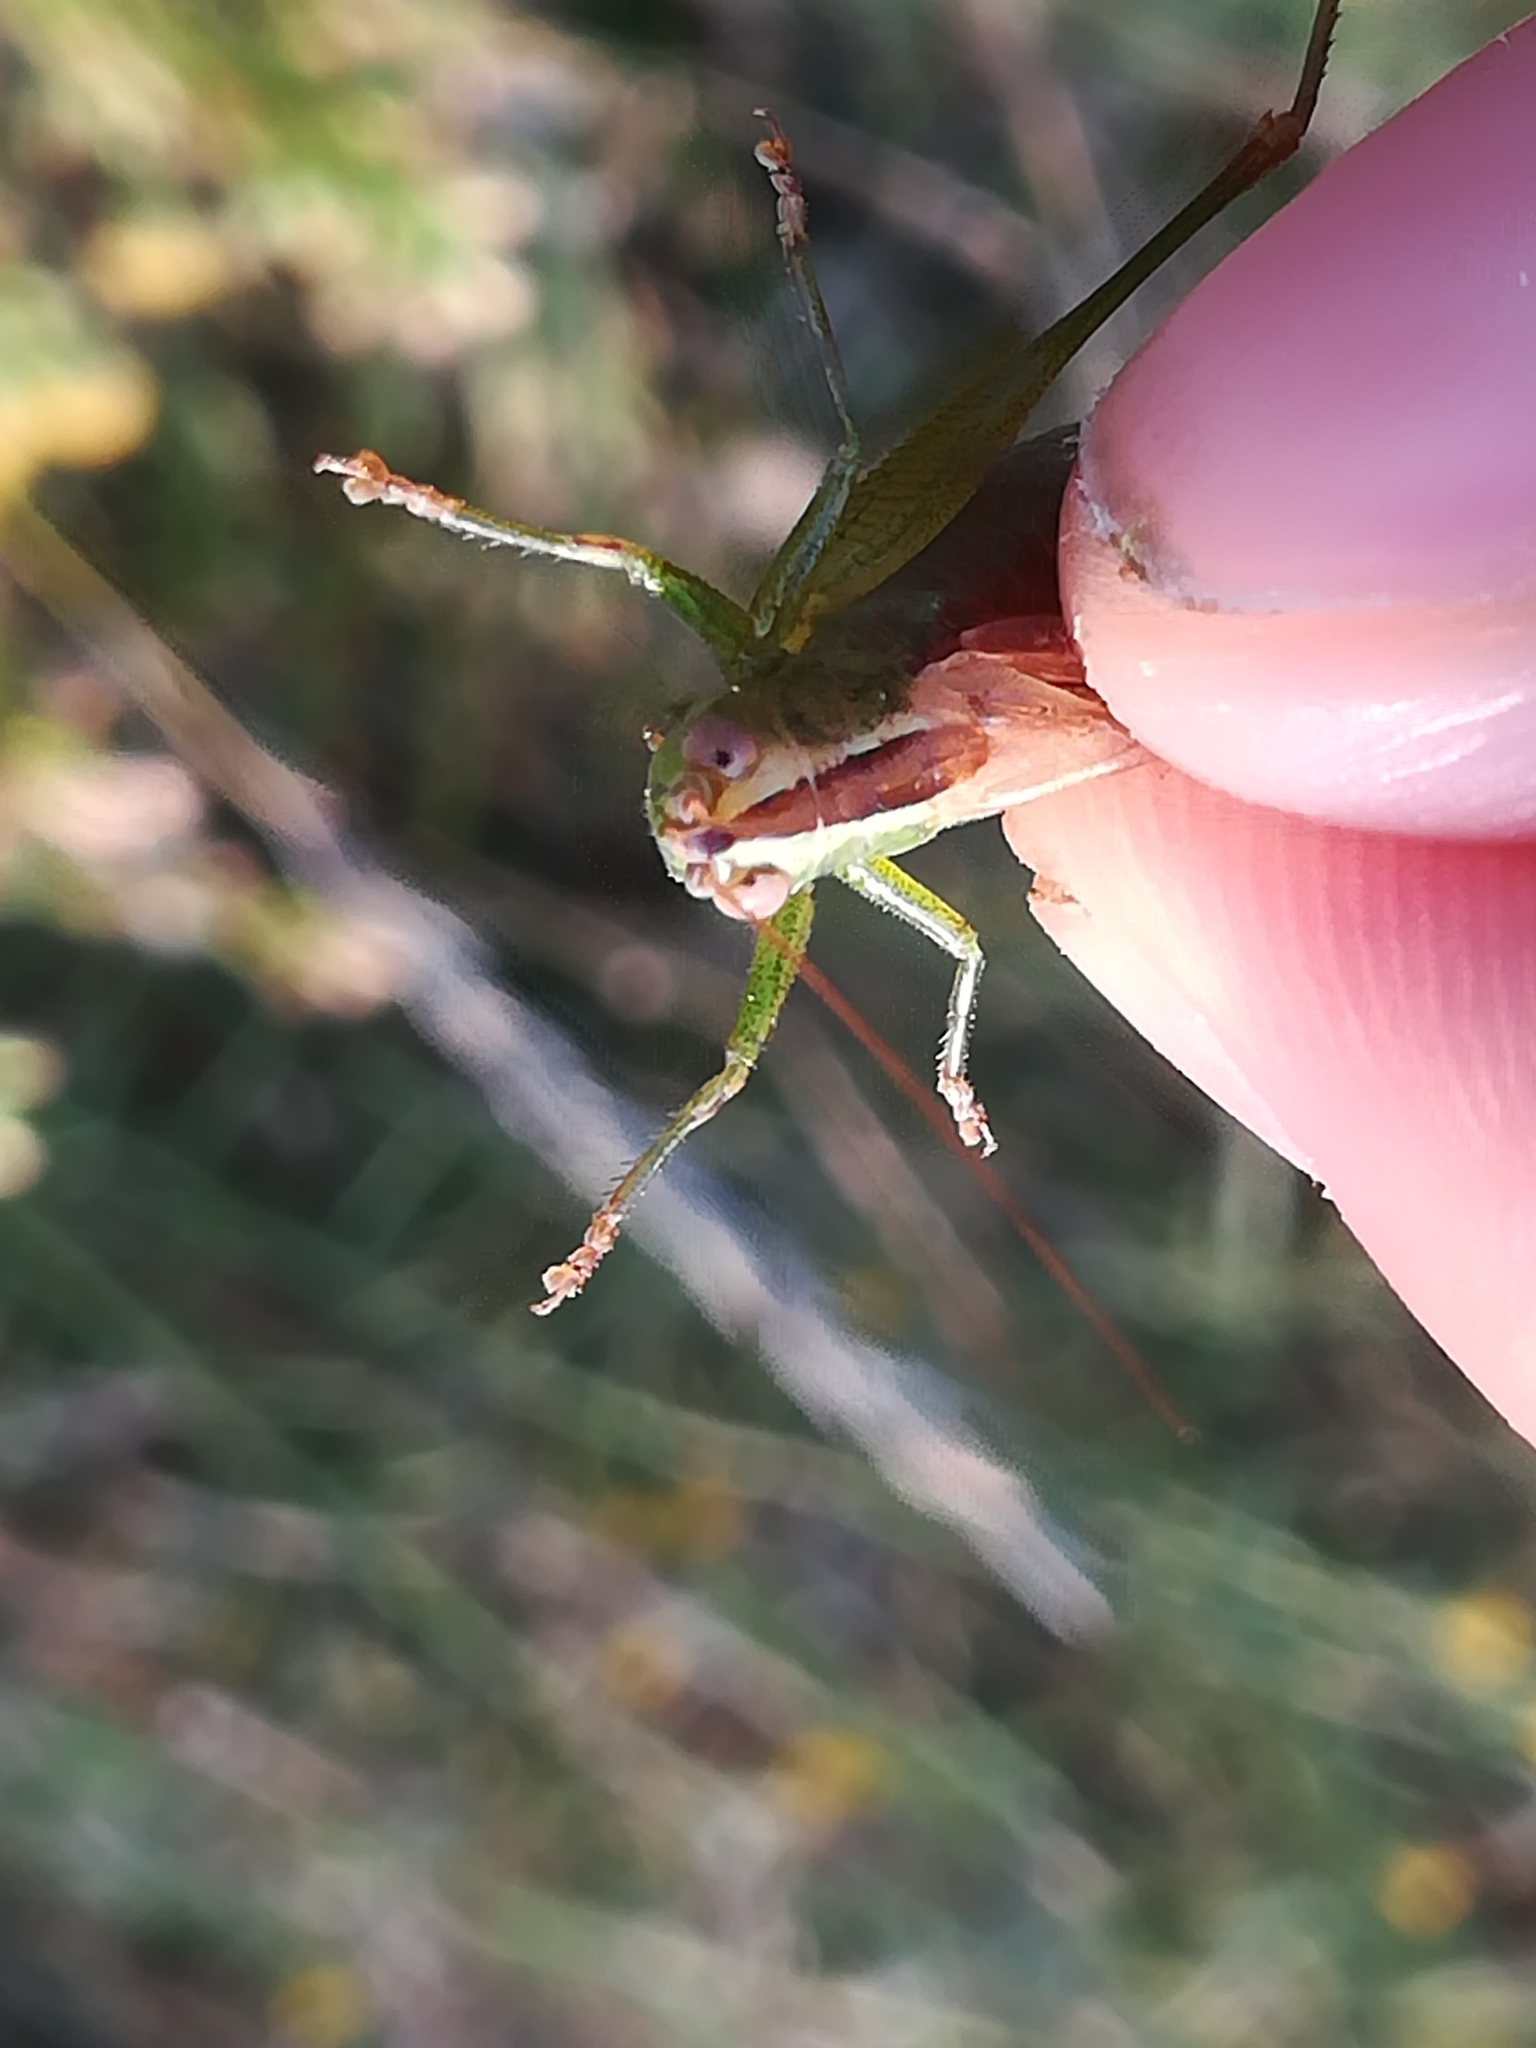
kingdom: Animalia
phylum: Arthropoda
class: Insecta
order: Orthoptera
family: Tettigoniidae
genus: Conocephalus
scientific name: Conocephalus fuscus
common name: Long-winged conehead
